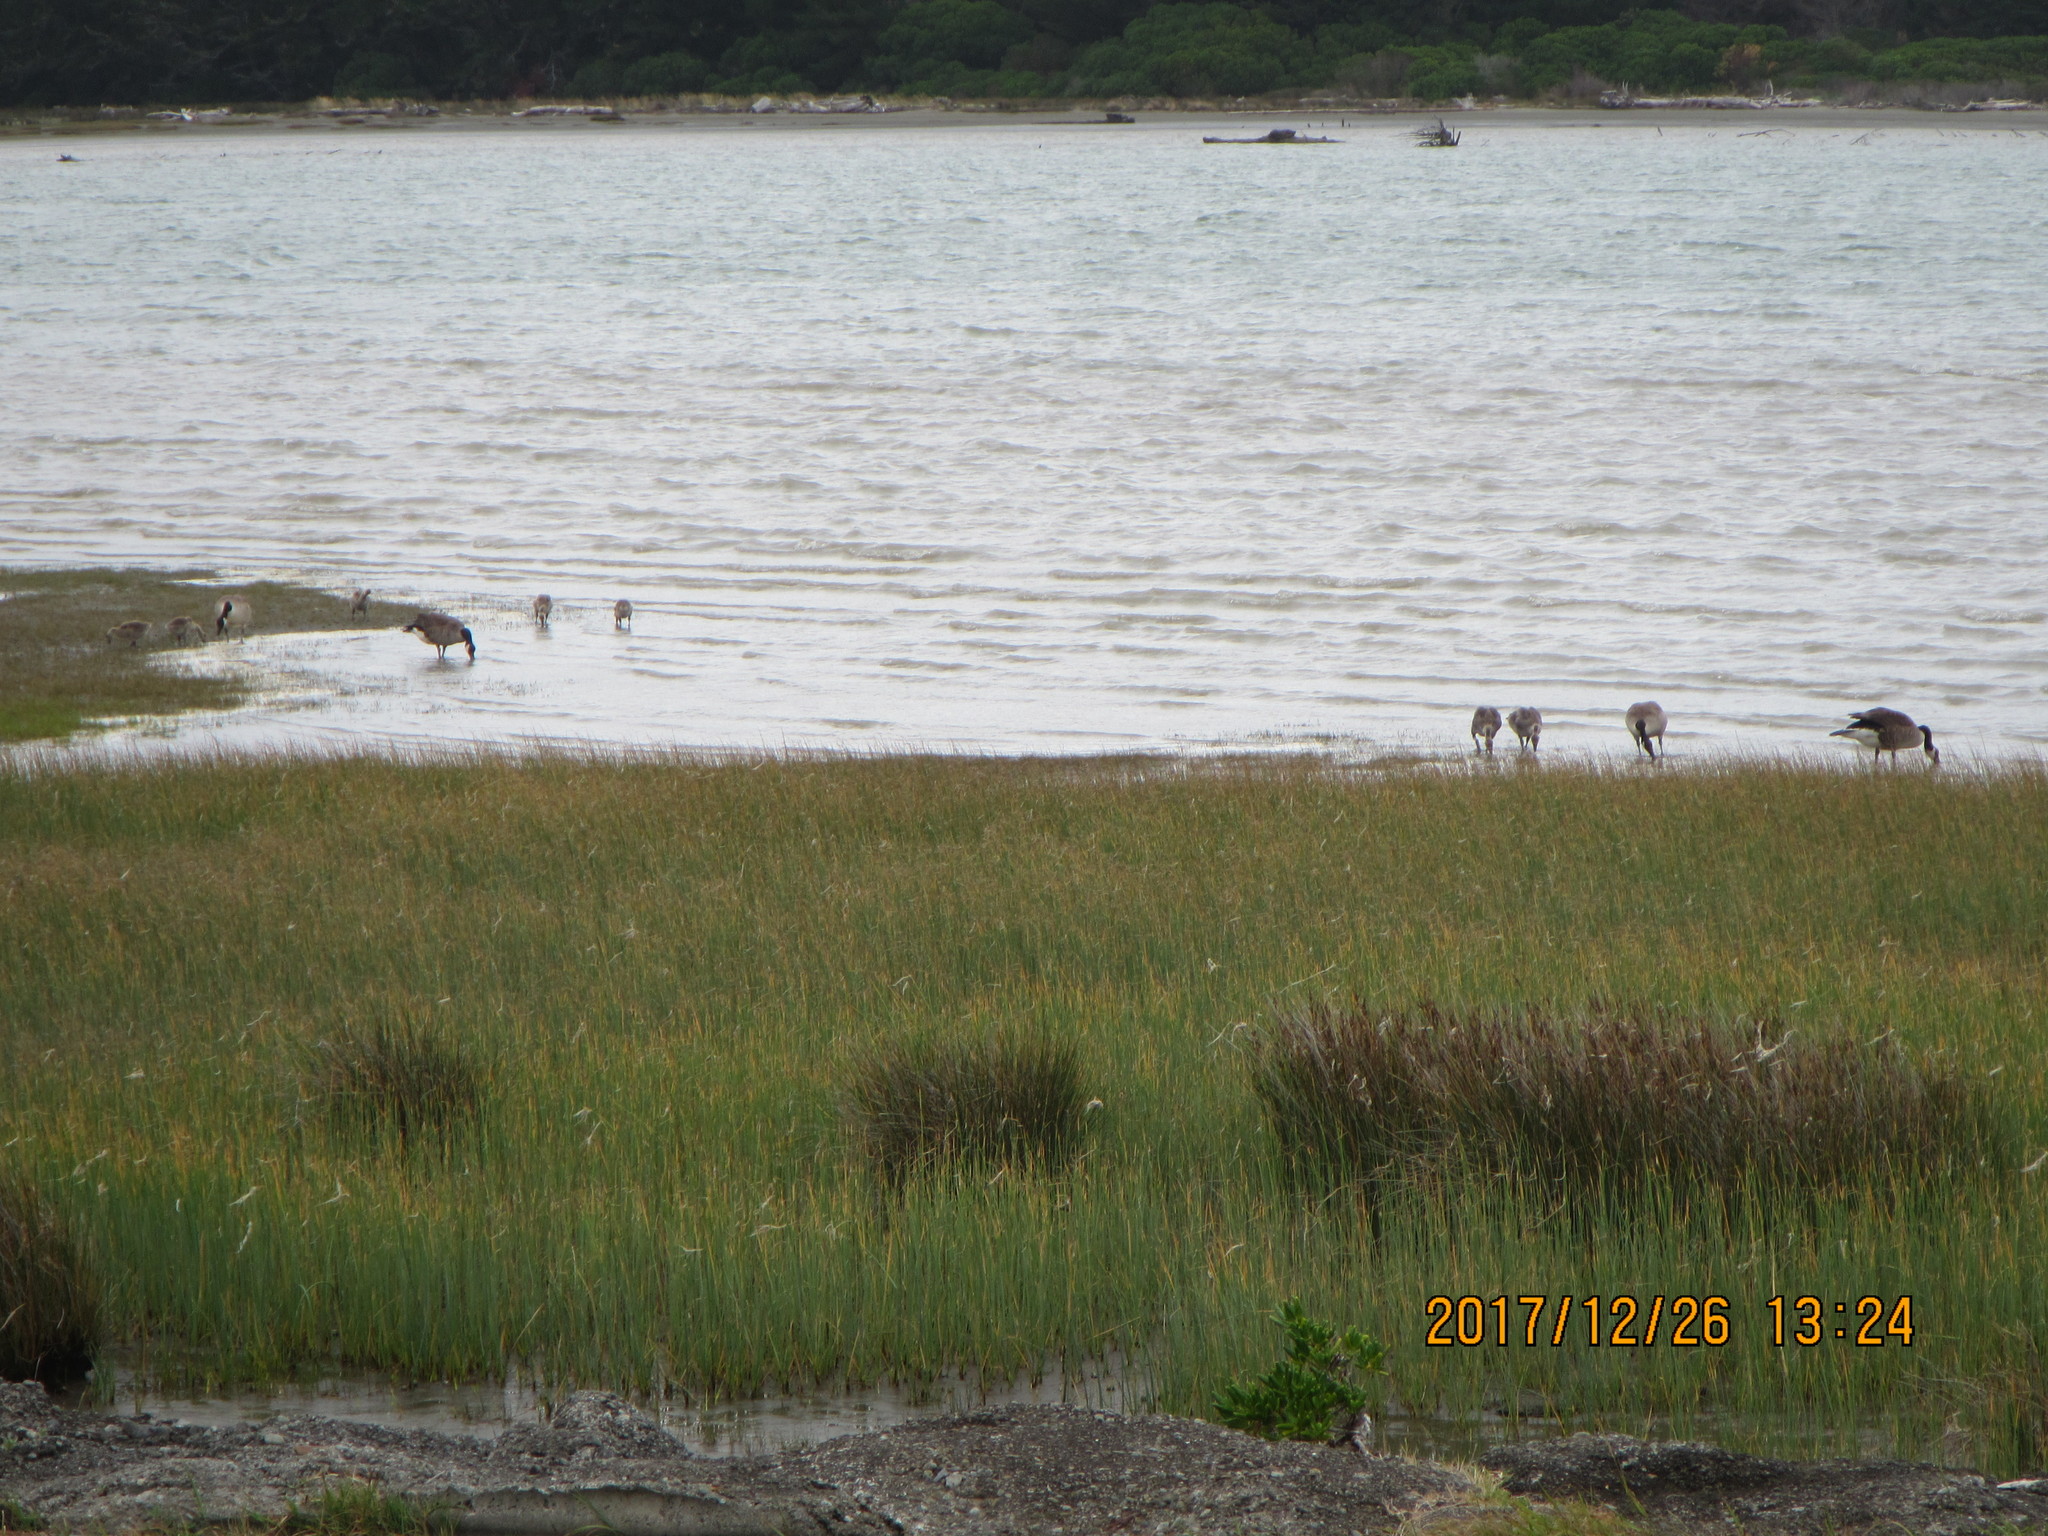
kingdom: Animalia
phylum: Chordata
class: Aves
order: Anseriformes
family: Anatidae
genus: Branta
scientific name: Branta canadensis
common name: Canada goose
